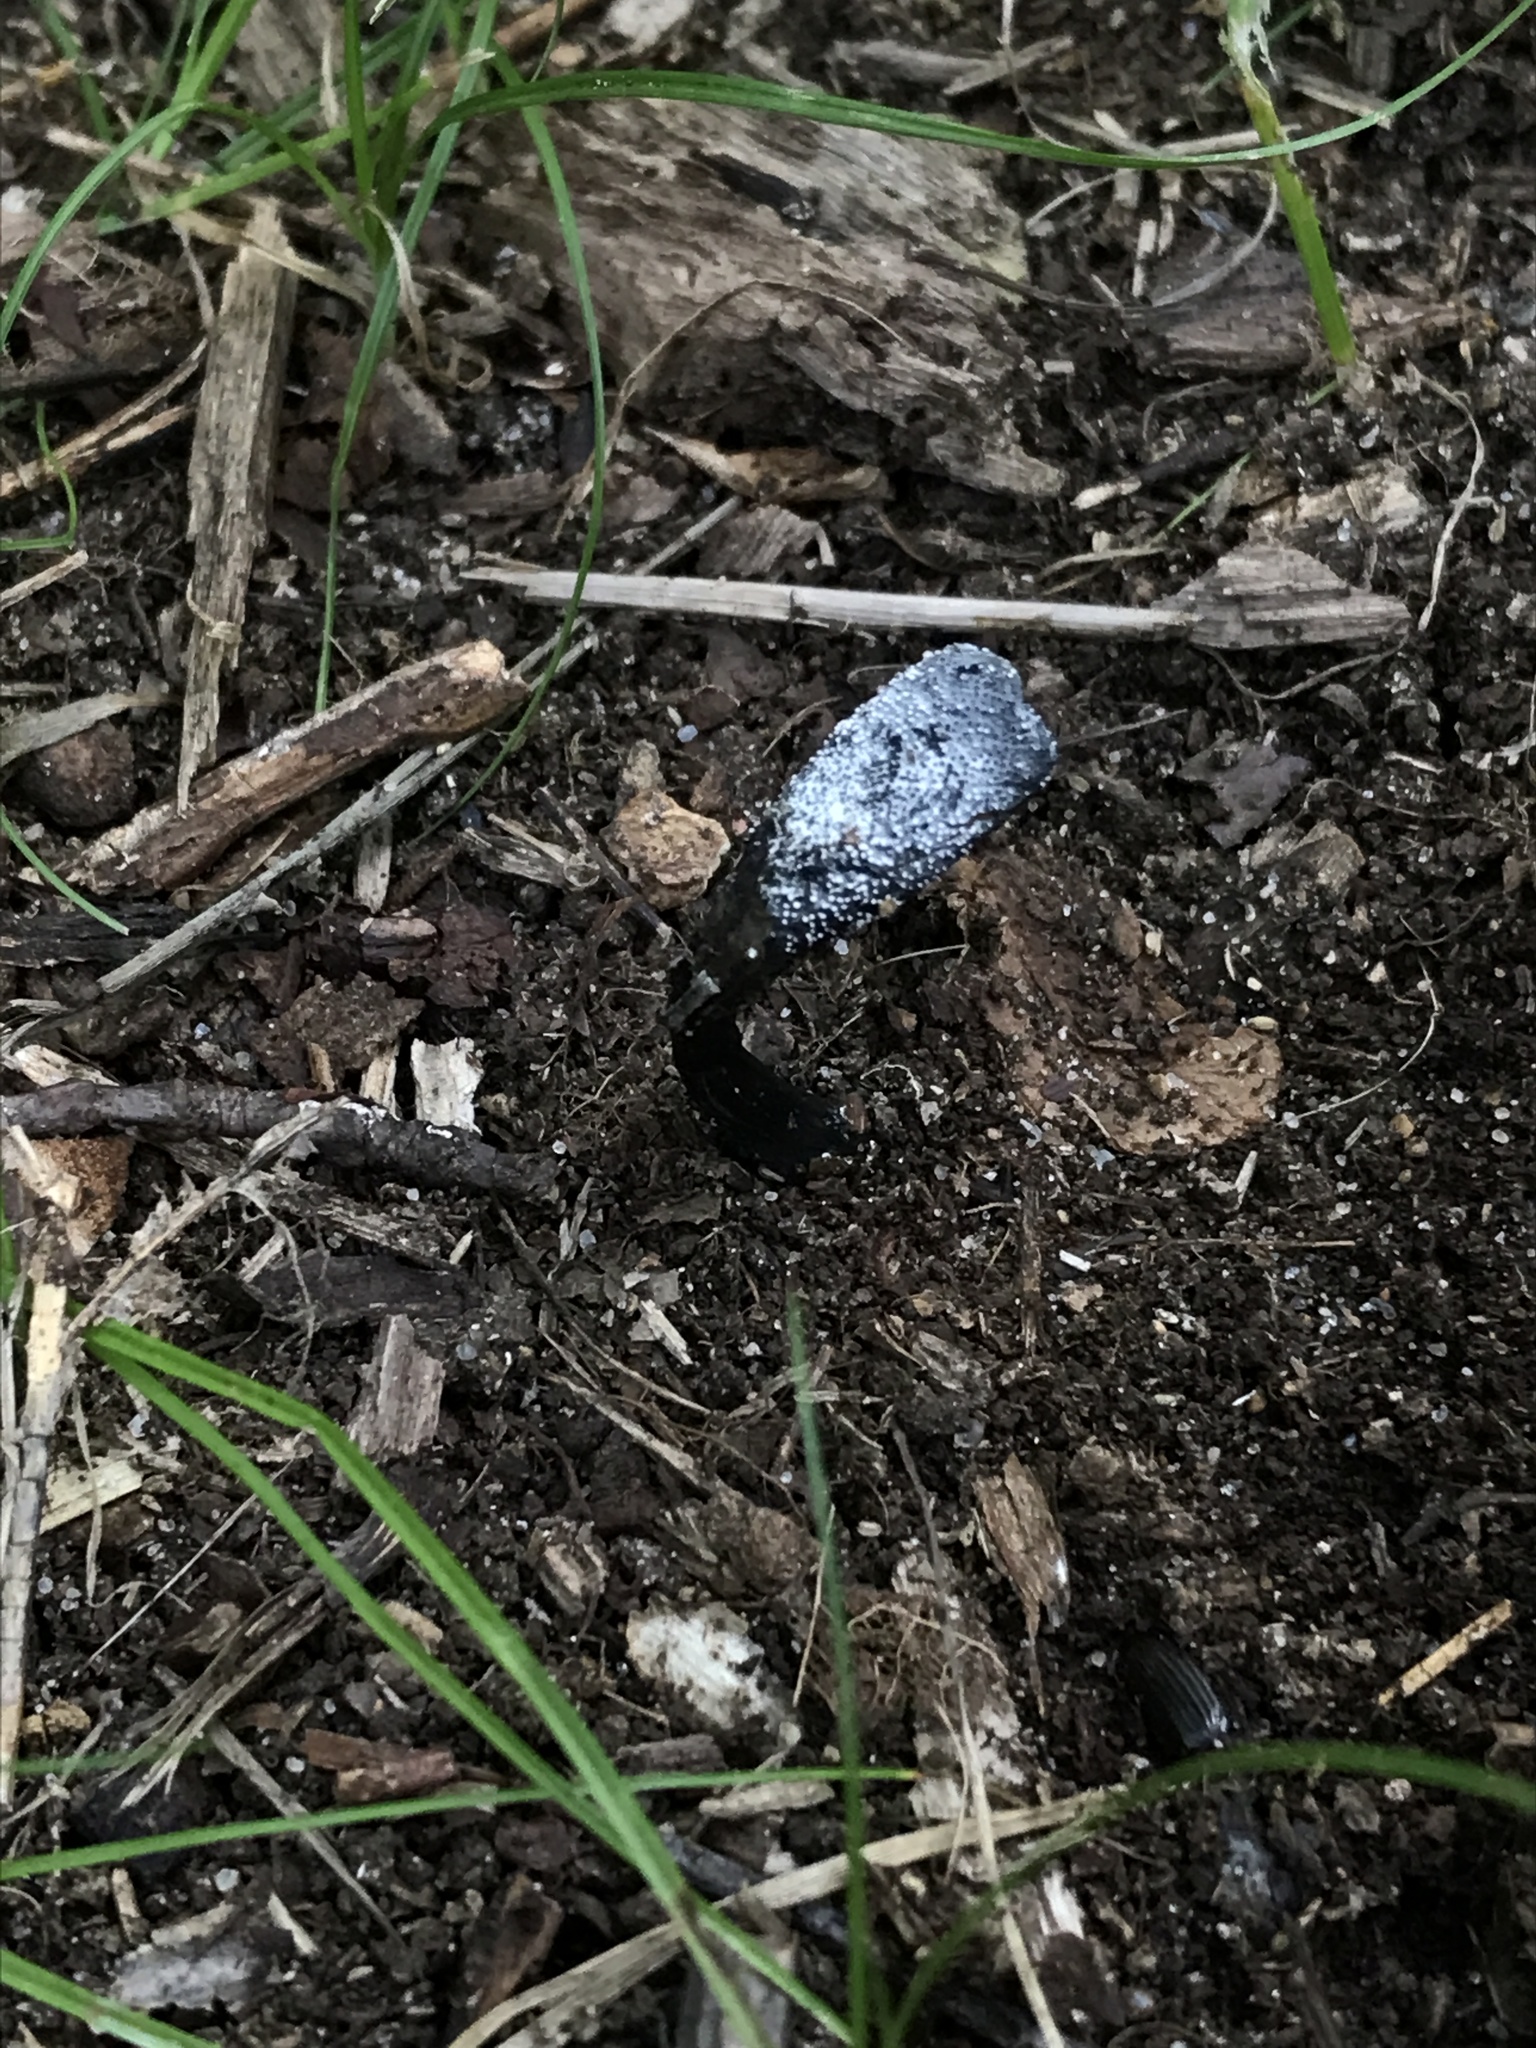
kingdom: Fungi
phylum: Ascomycota
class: Sordariomycetes
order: Hypocreales
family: Hypocreaceae
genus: Hypomyces
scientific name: Hypomyces papulasporae
